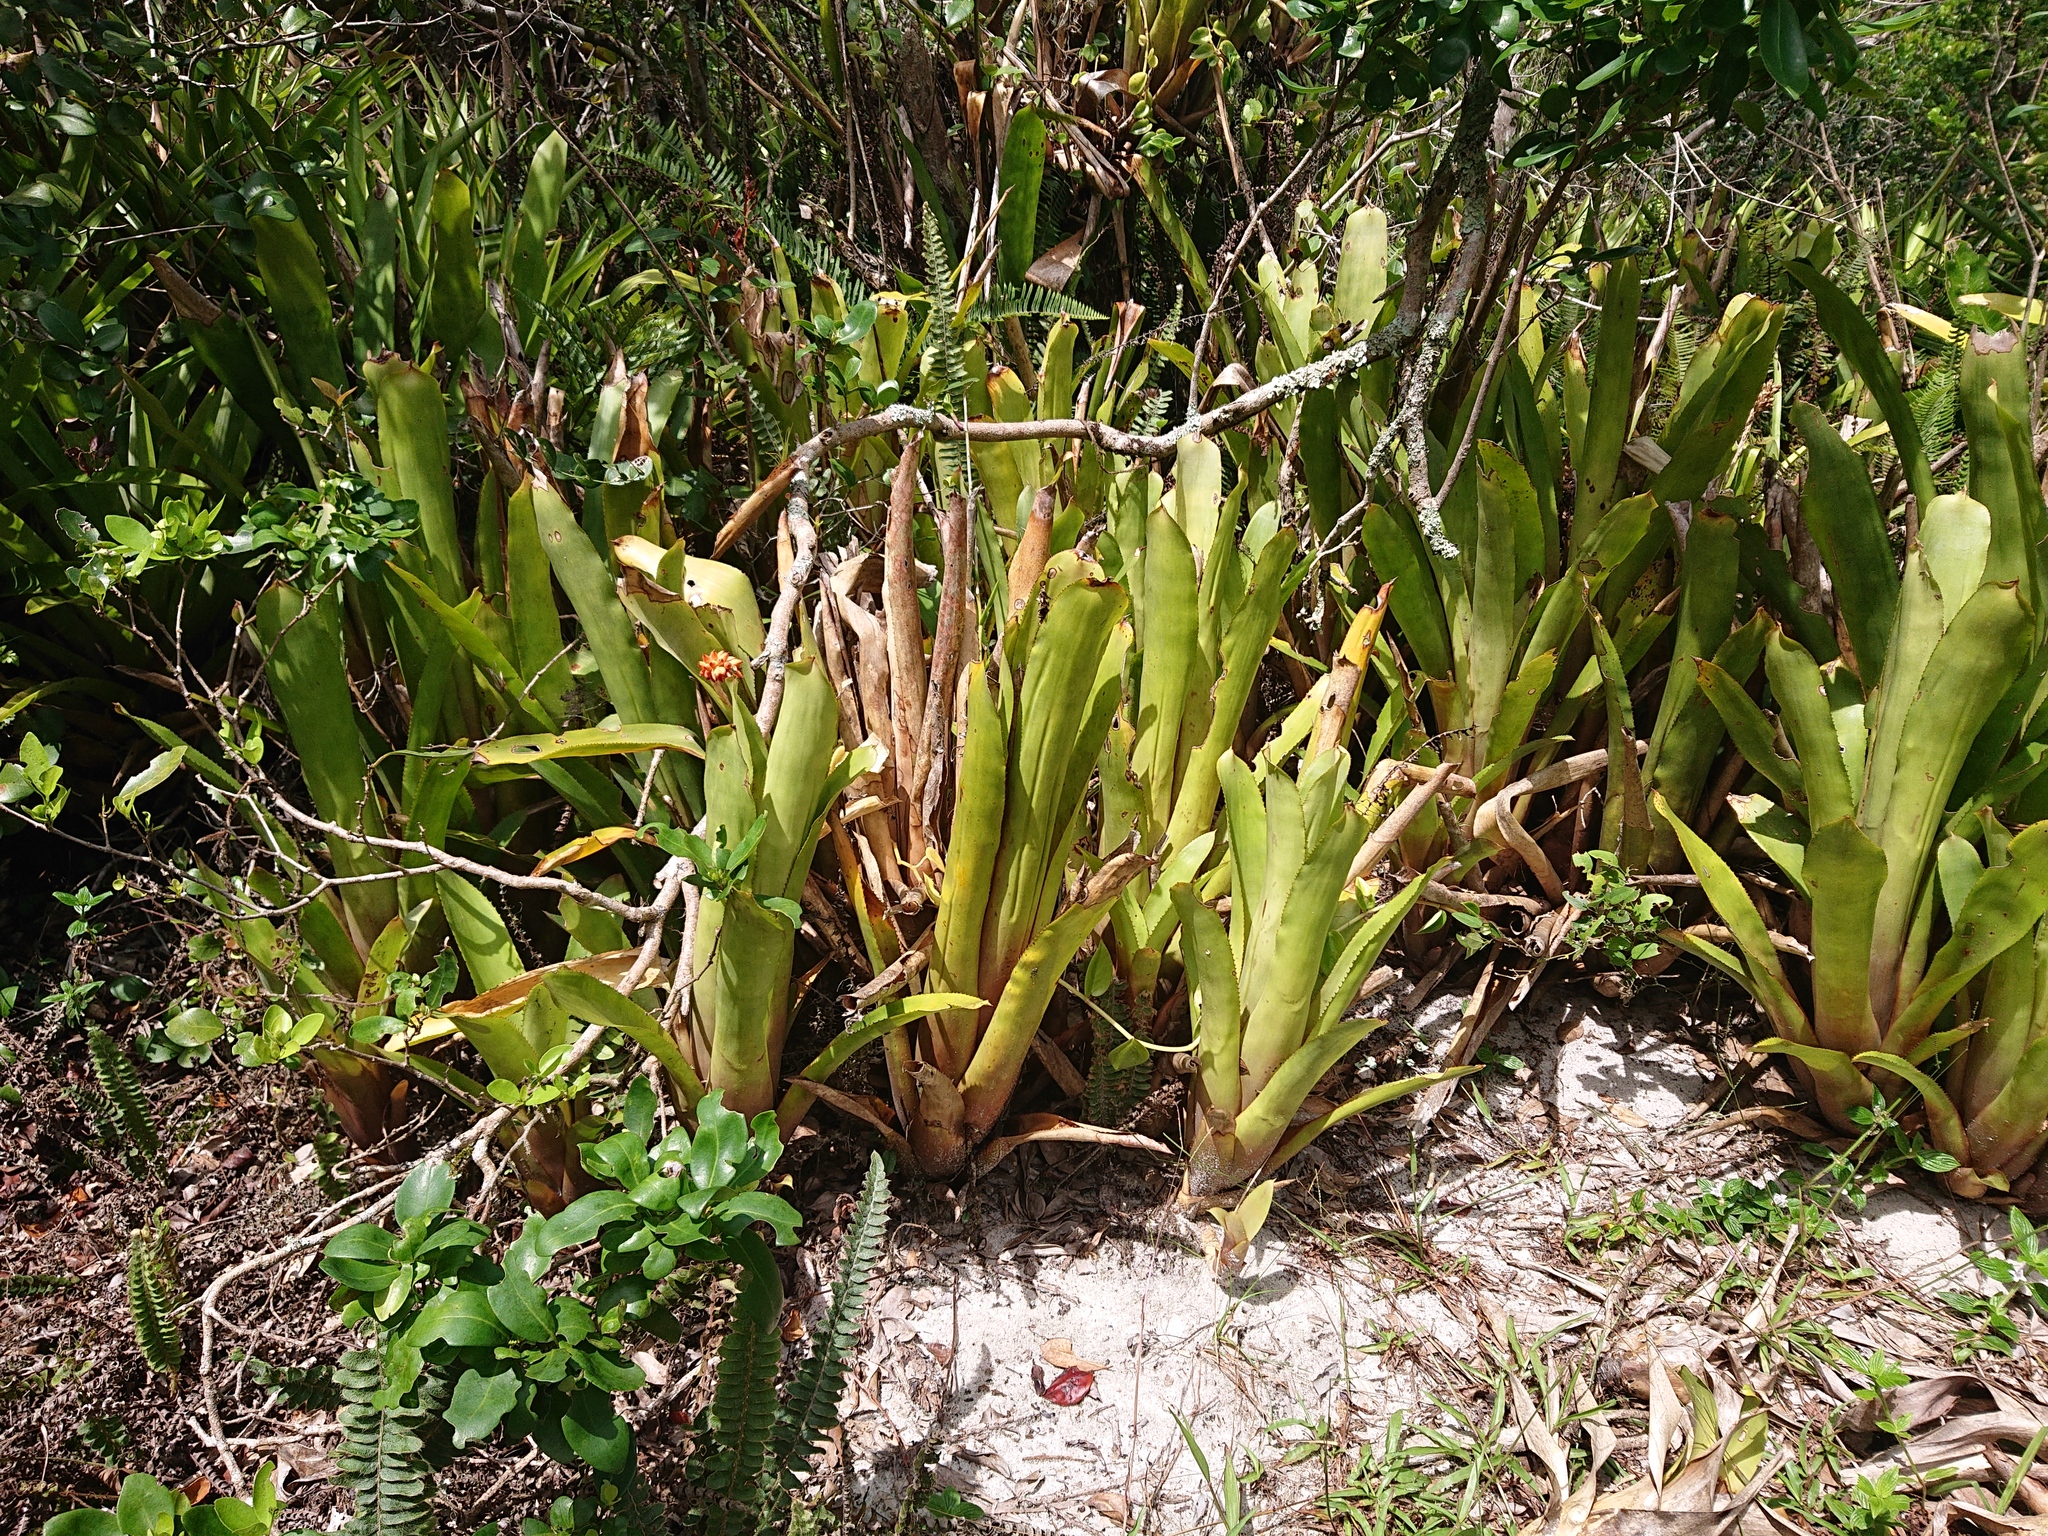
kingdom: Plantae
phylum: Tracheophyta
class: Liliopsida
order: Poales
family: Bromeliaceae
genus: Aechmea
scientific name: Aechmea comata
